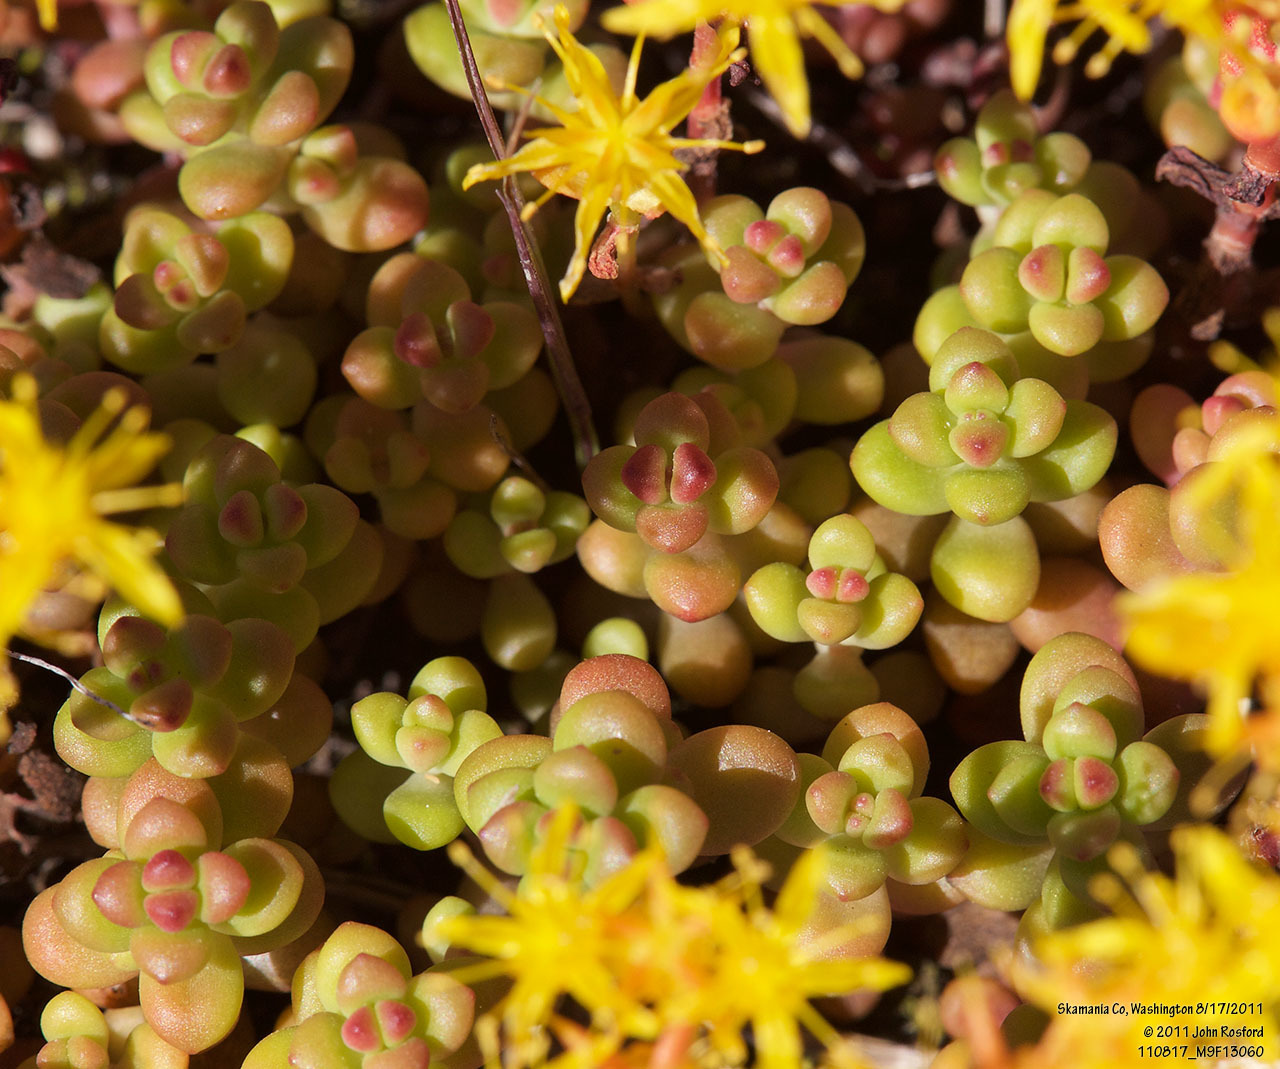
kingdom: Plantae
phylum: Tracheophyta
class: Magnoliopsida
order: Saxifragales
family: Crassulaceae
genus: Sedum
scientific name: Sedum divergens
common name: Cascade stonecrop
